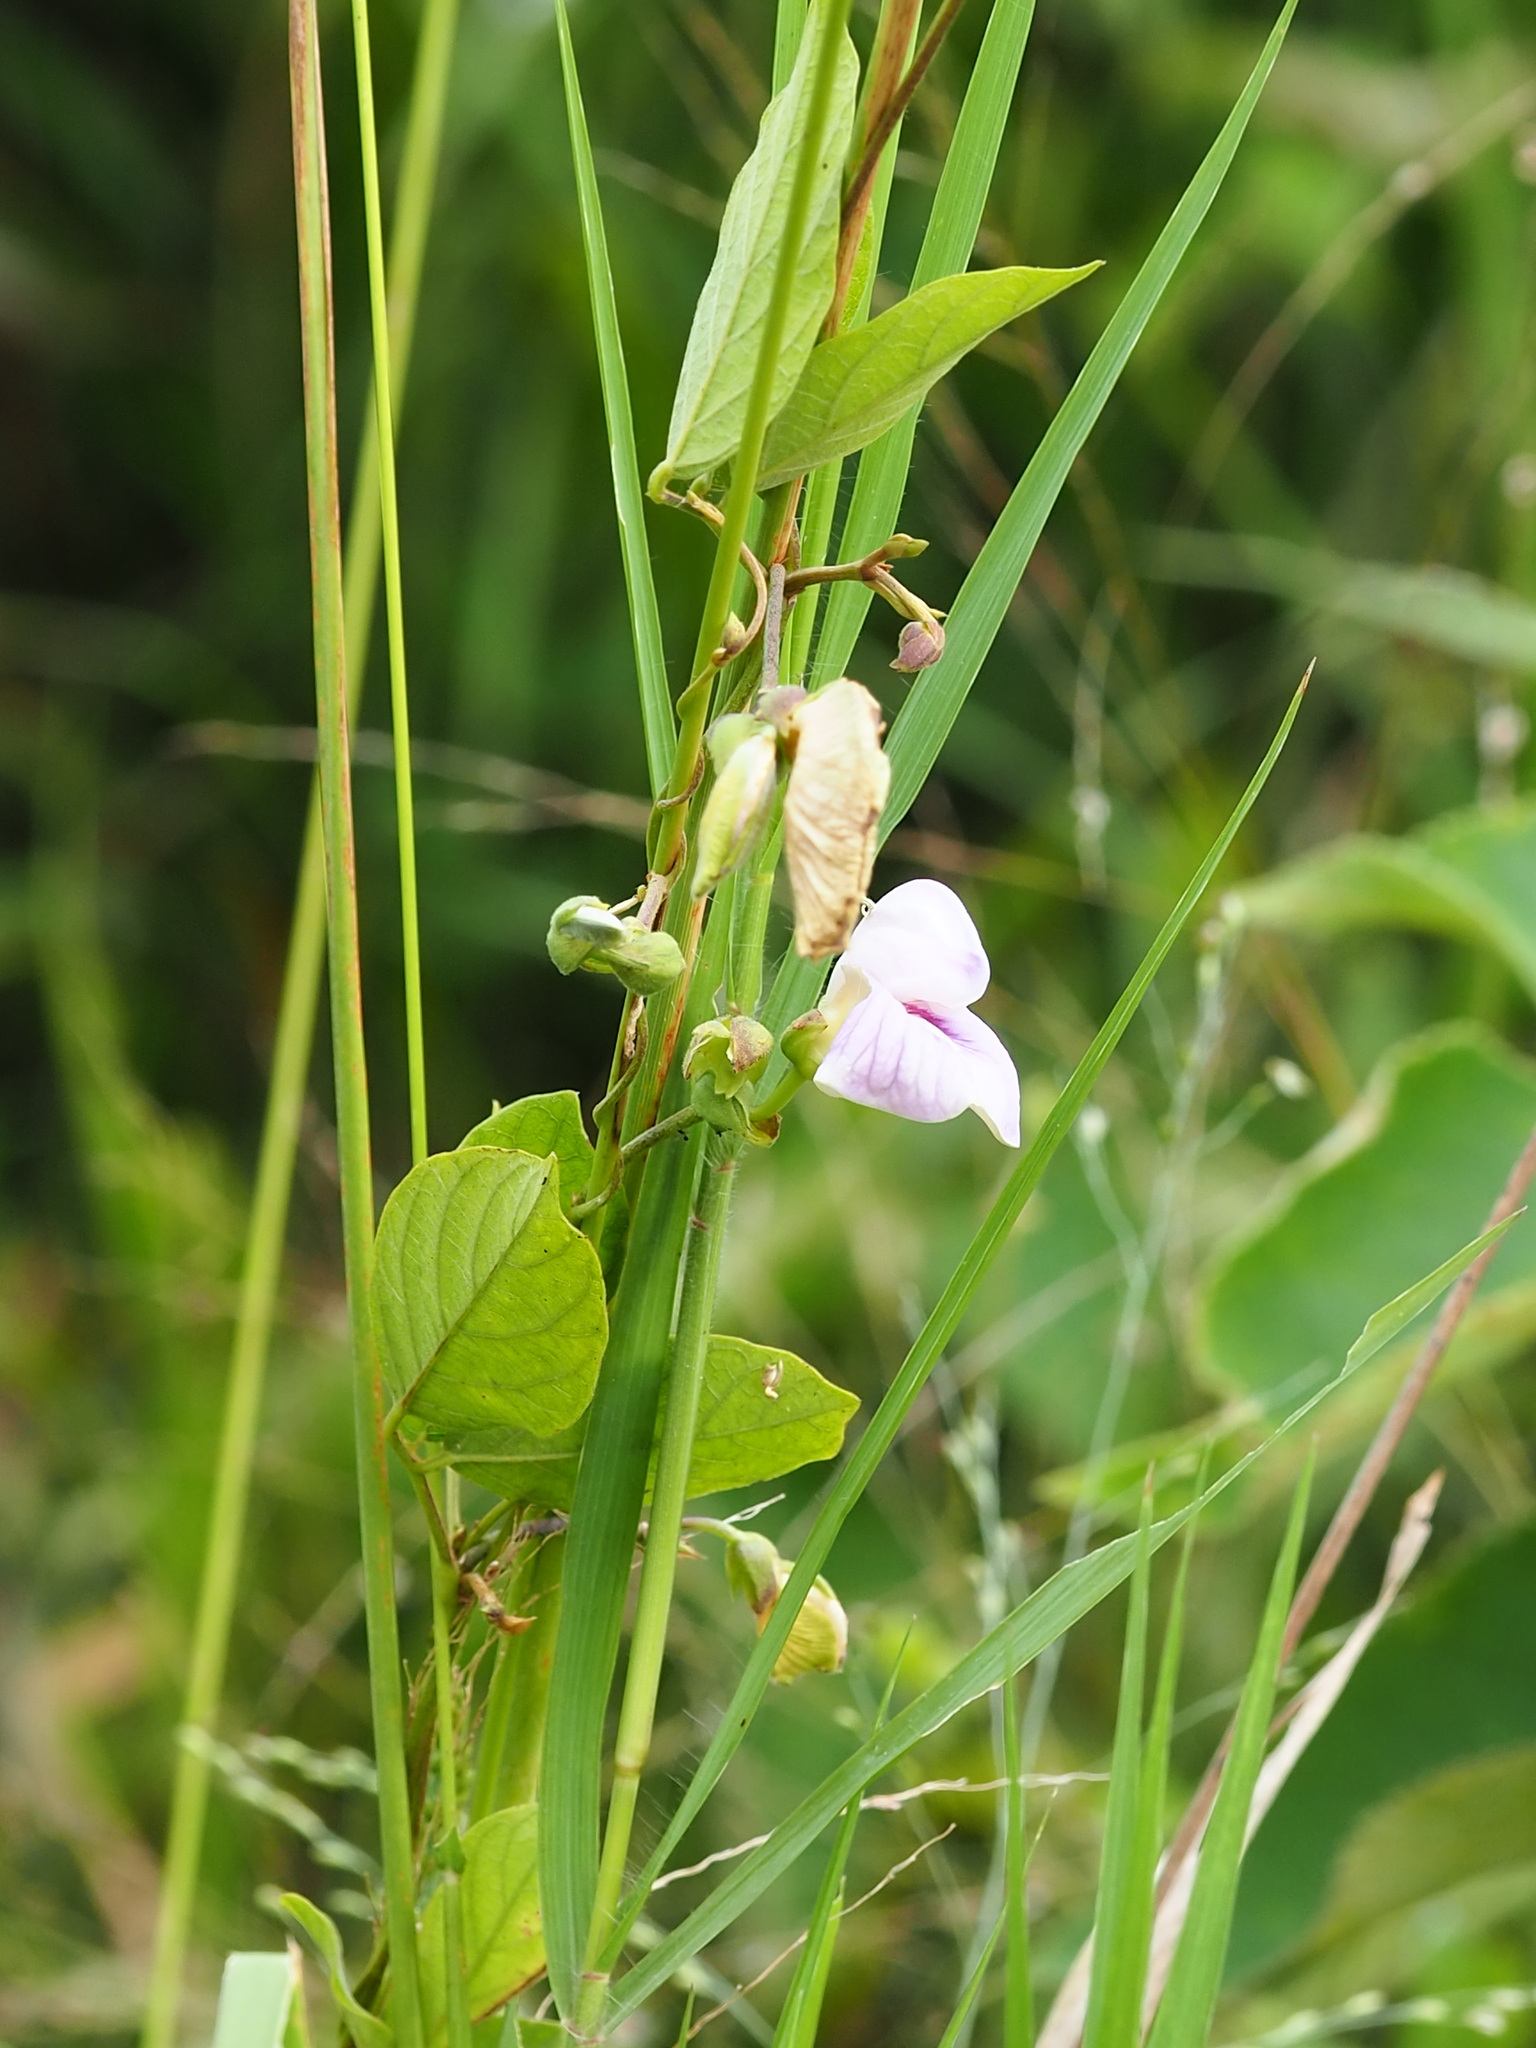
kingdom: Plantae
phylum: Tracheophyta
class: Magnoliopsida
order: Fabales
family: Fabaceae
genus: Centrosema
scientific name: Centrosema pubescens
